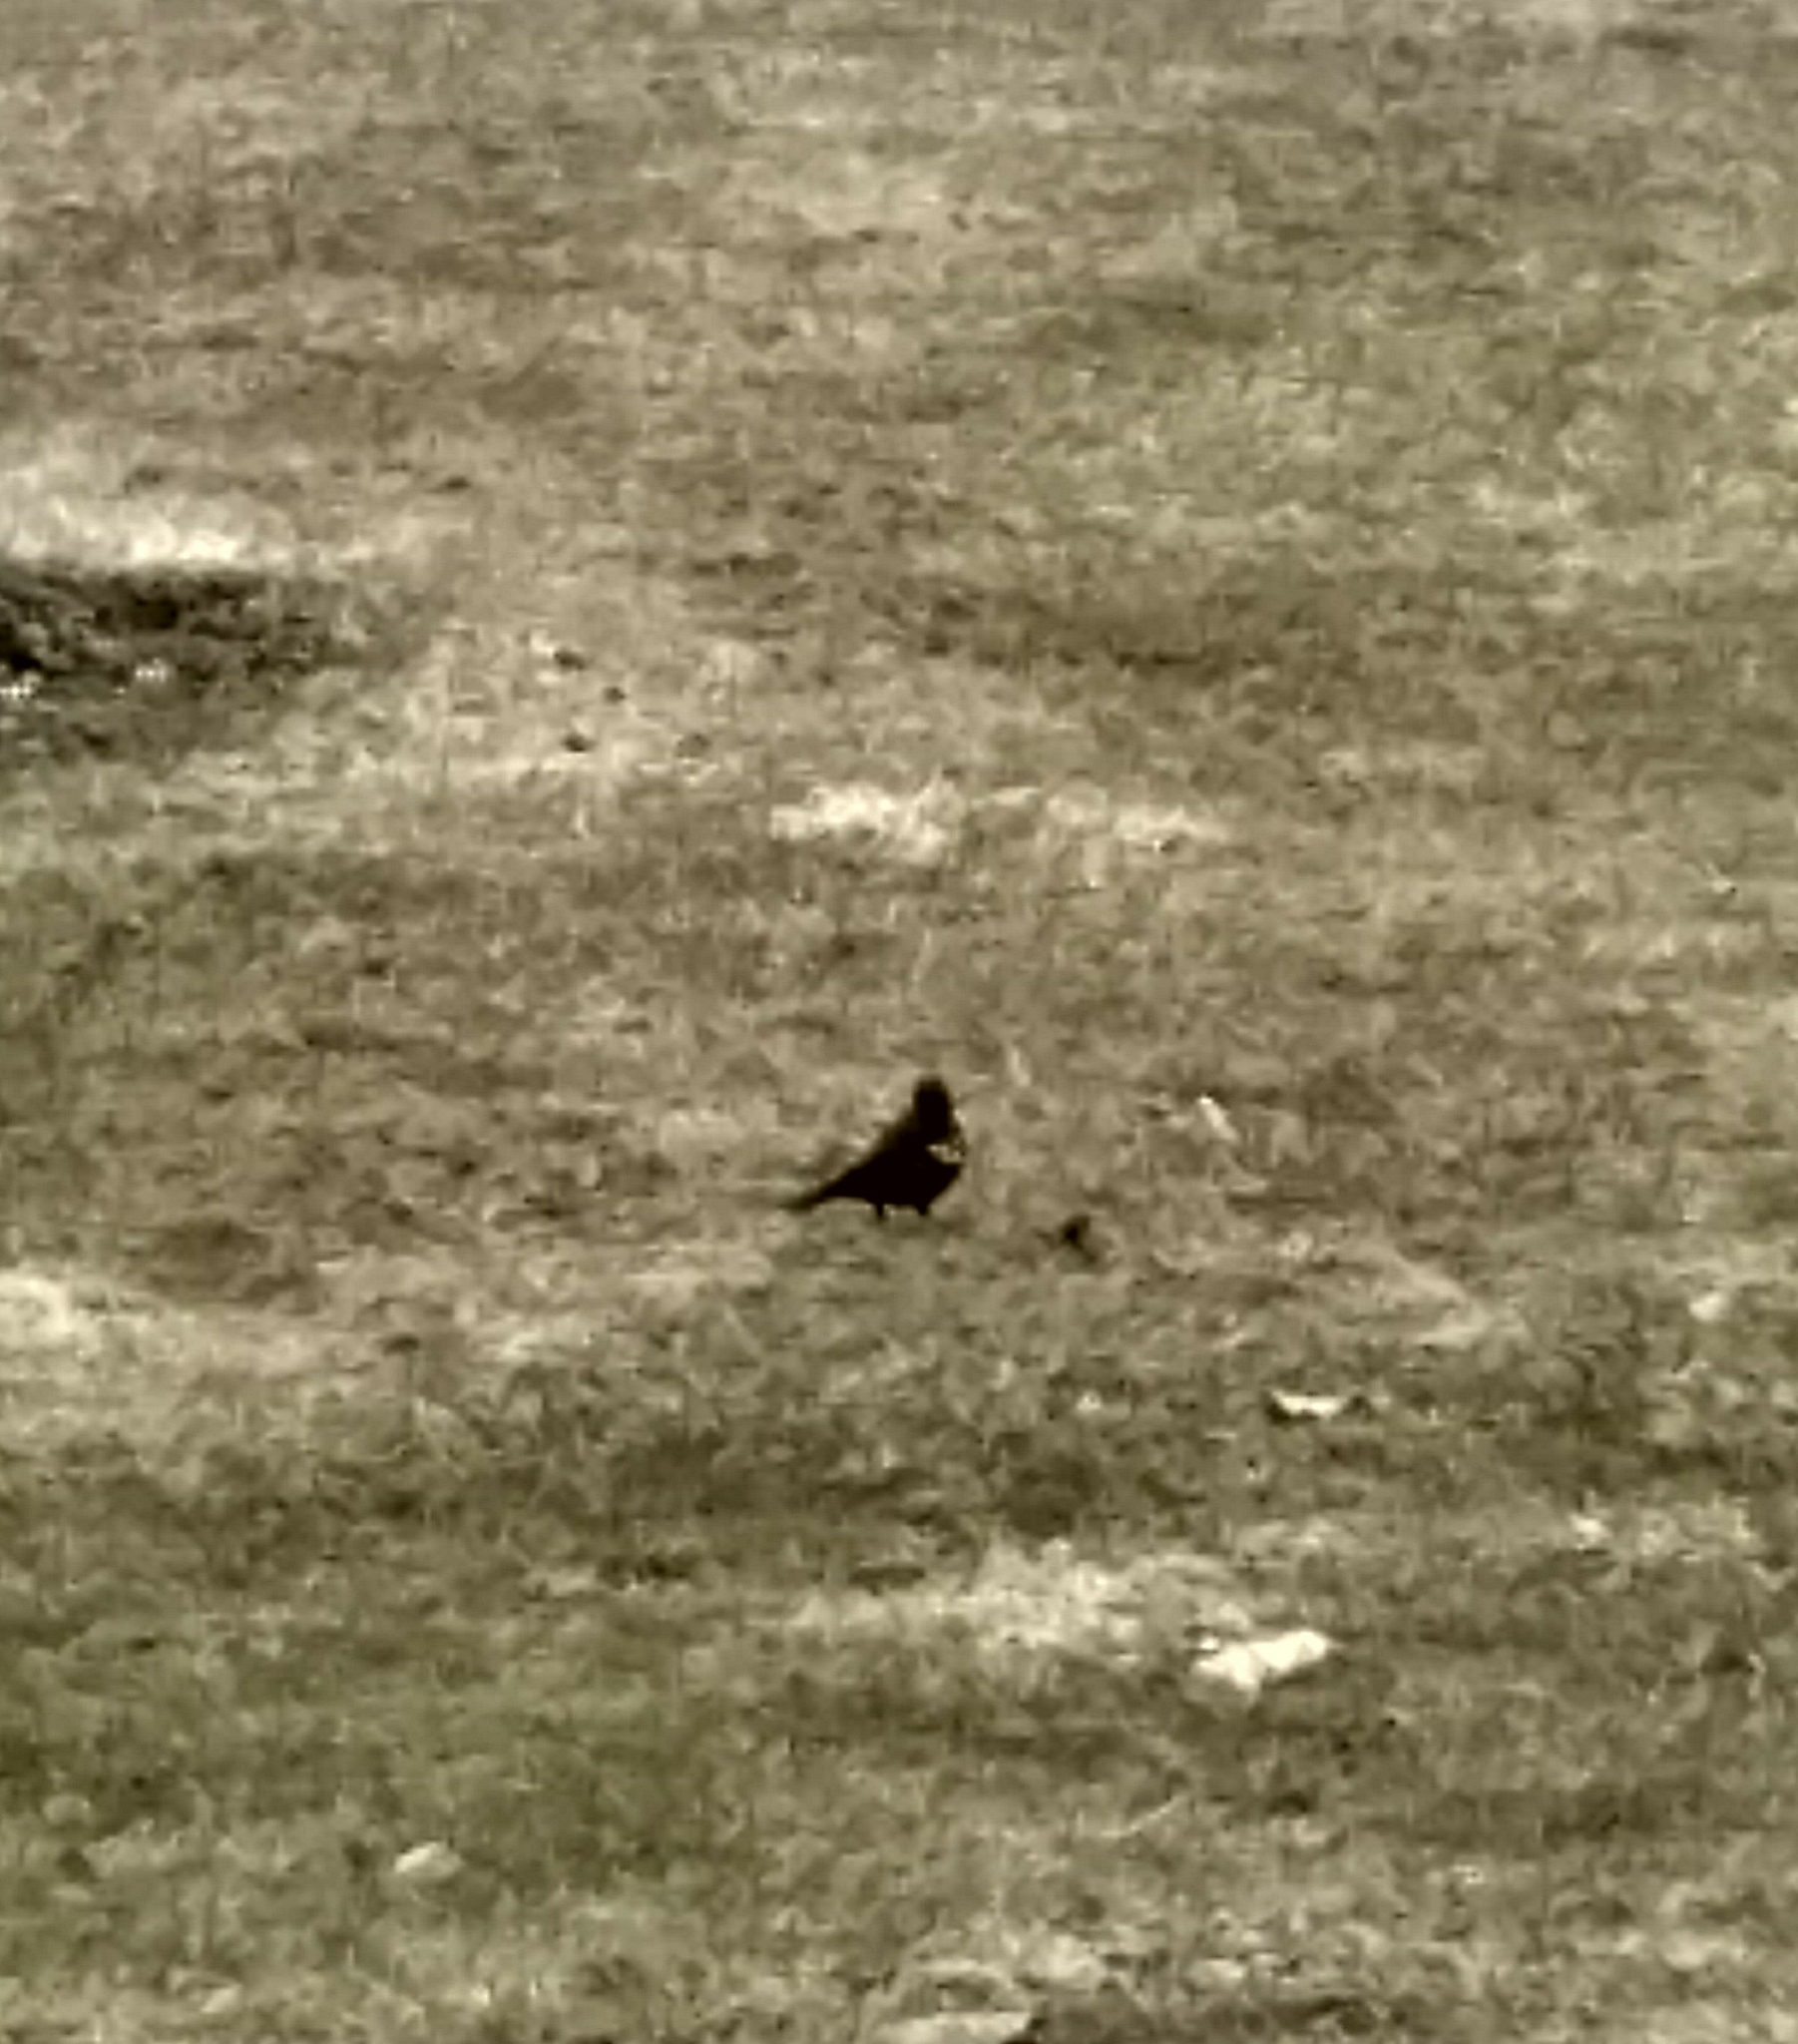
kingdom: Animalia
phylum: Chordata
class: Aves
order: Passeriformes
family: Icteridae
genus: Agelaius
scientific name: Agelaius phoeniceus
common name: Red-winged blackbird
